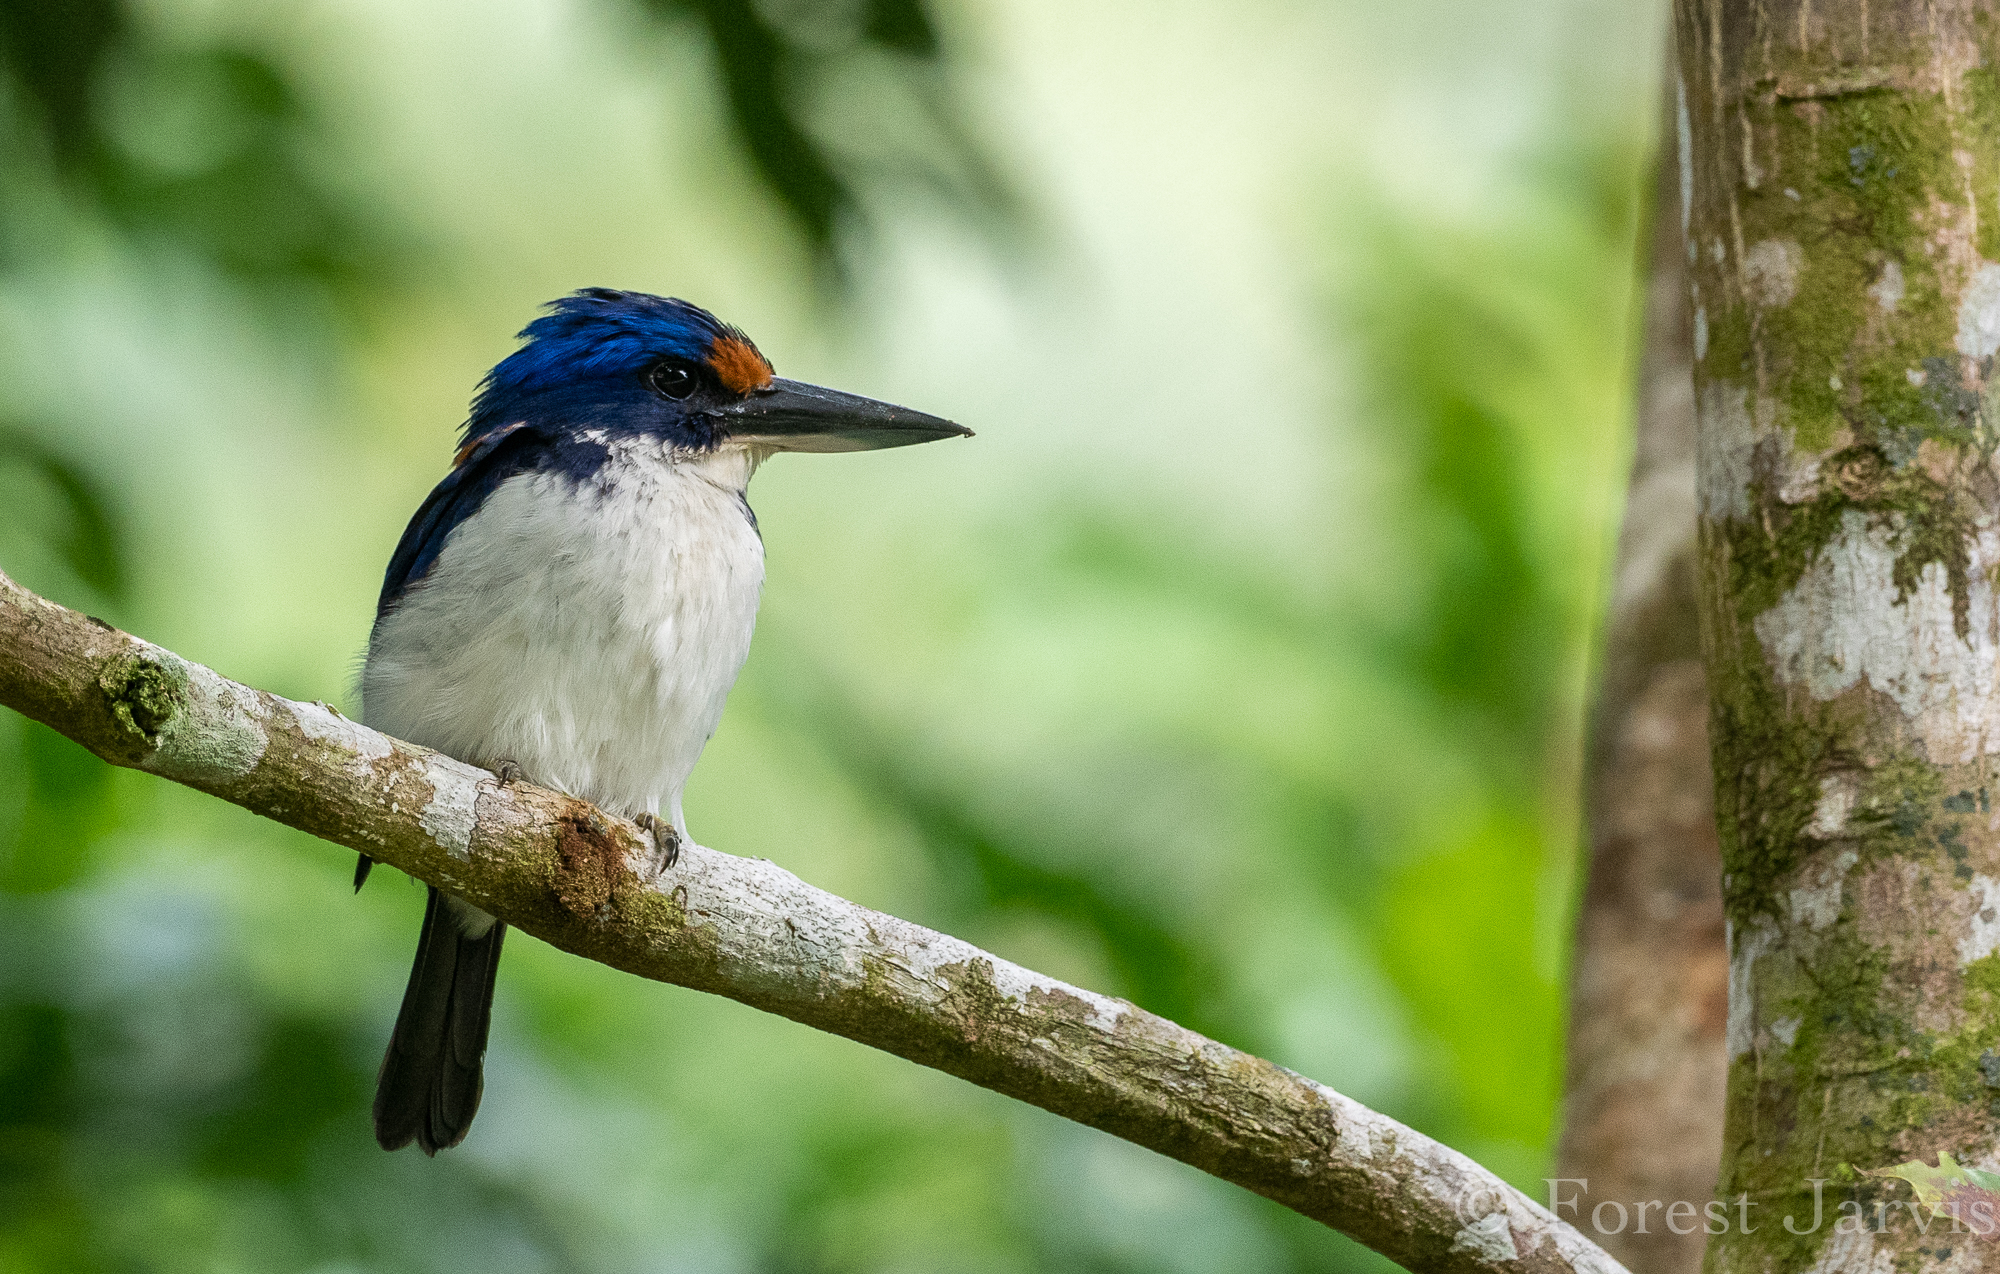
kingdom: Animalia
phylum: Chordata
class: Aves
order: Coraciiformes
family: Alcedinidae
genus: Todiramphus
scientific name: Todiramphus winchelli
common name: Winchell's kingfisher
